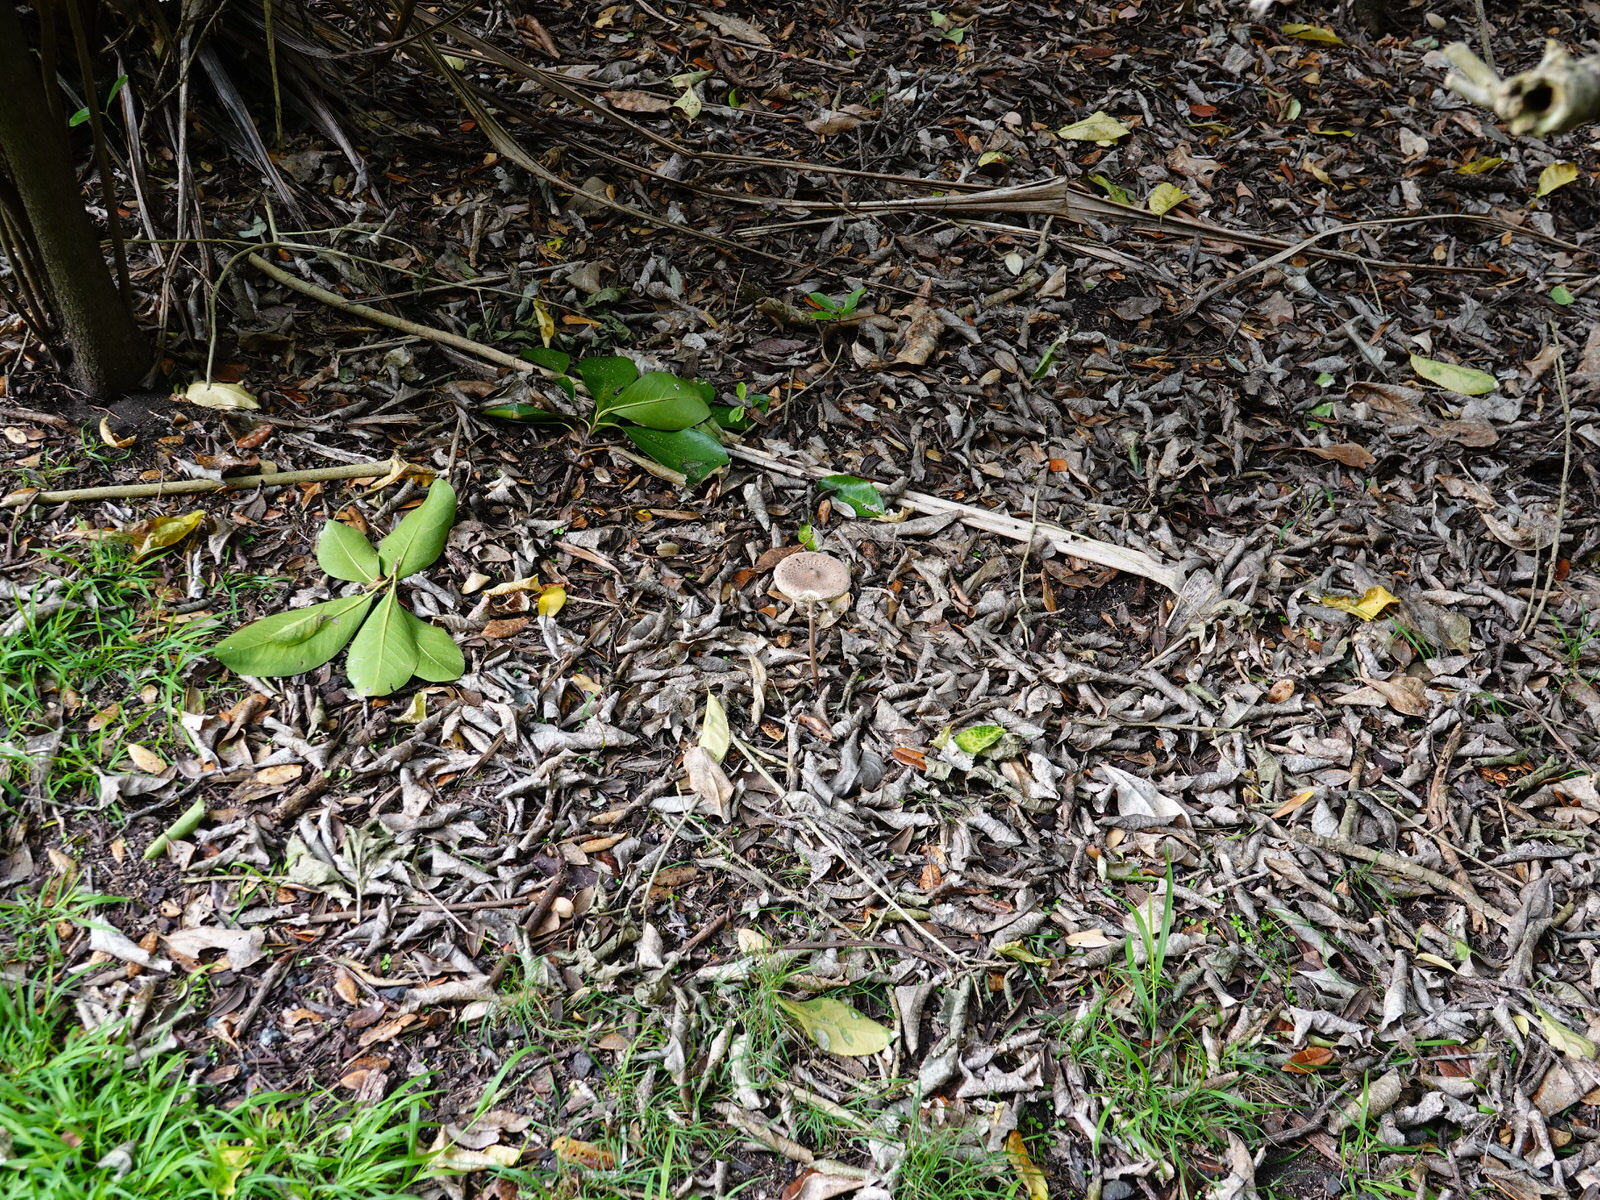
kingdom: Fungi
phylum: Basidiomycota
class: Agaricomycetes
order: Agaricales
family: Agaricaceae
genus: Macrolepiota
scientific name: Macrolepiota clelandii
